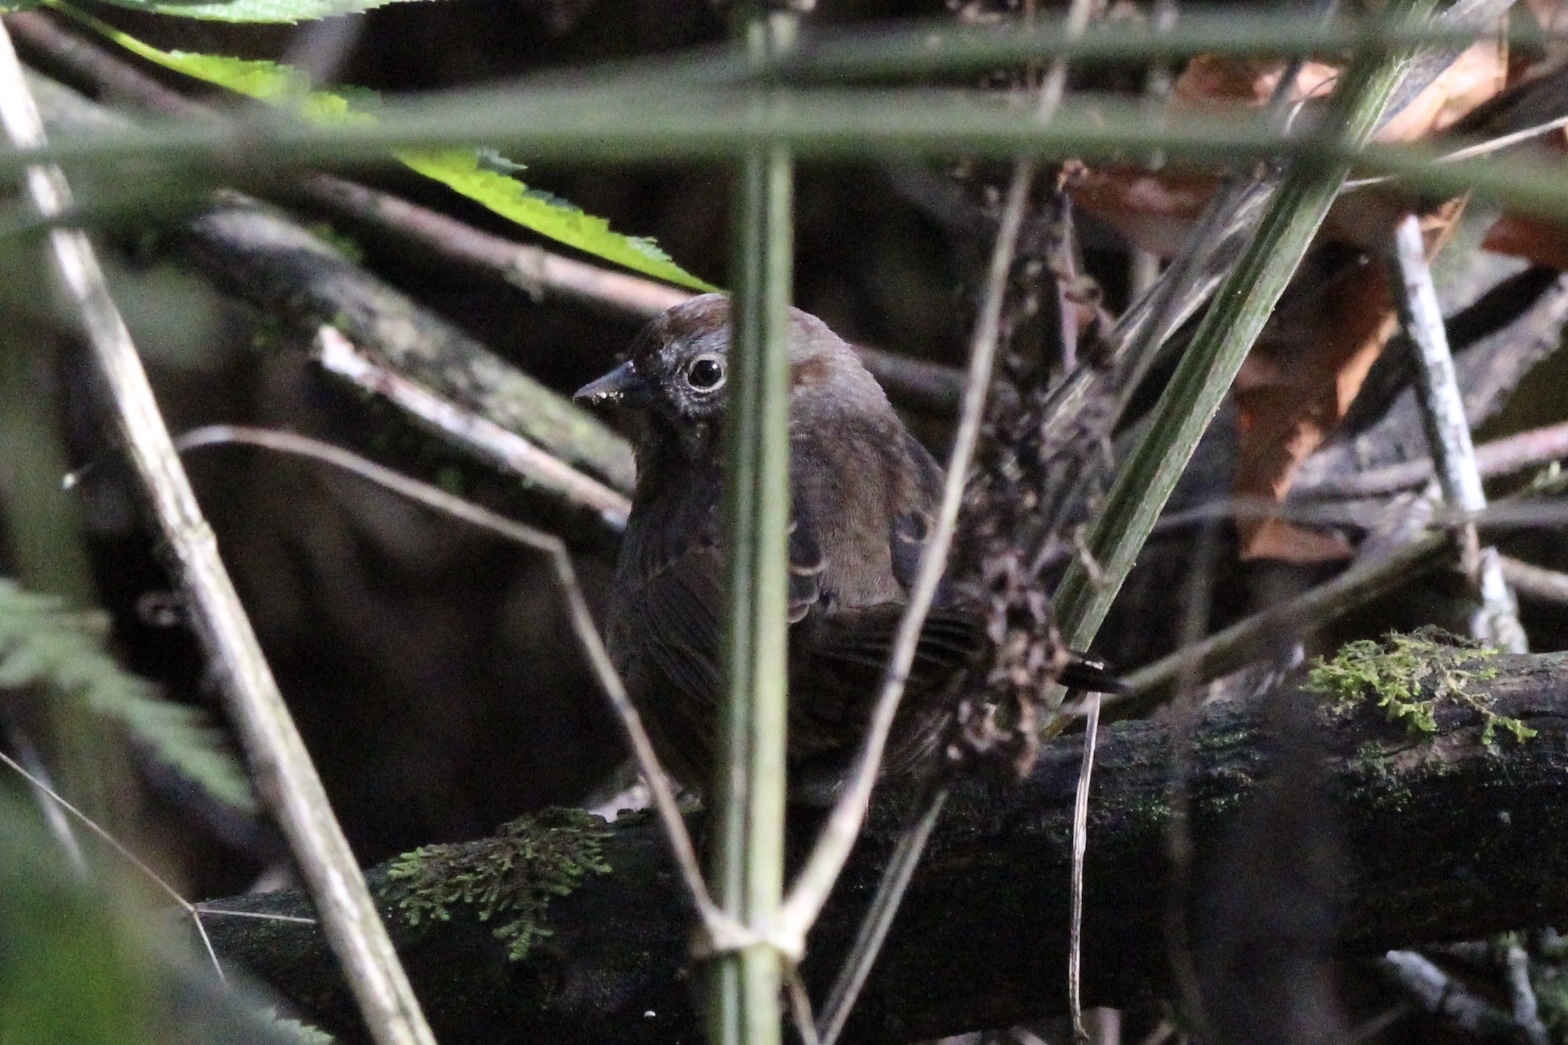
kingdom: Animalia
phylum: Chordata
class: Aves
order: Passeriformes
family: Passerellidae
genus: Melospiza
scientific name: Melospiza melodia
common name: Song sparrow
